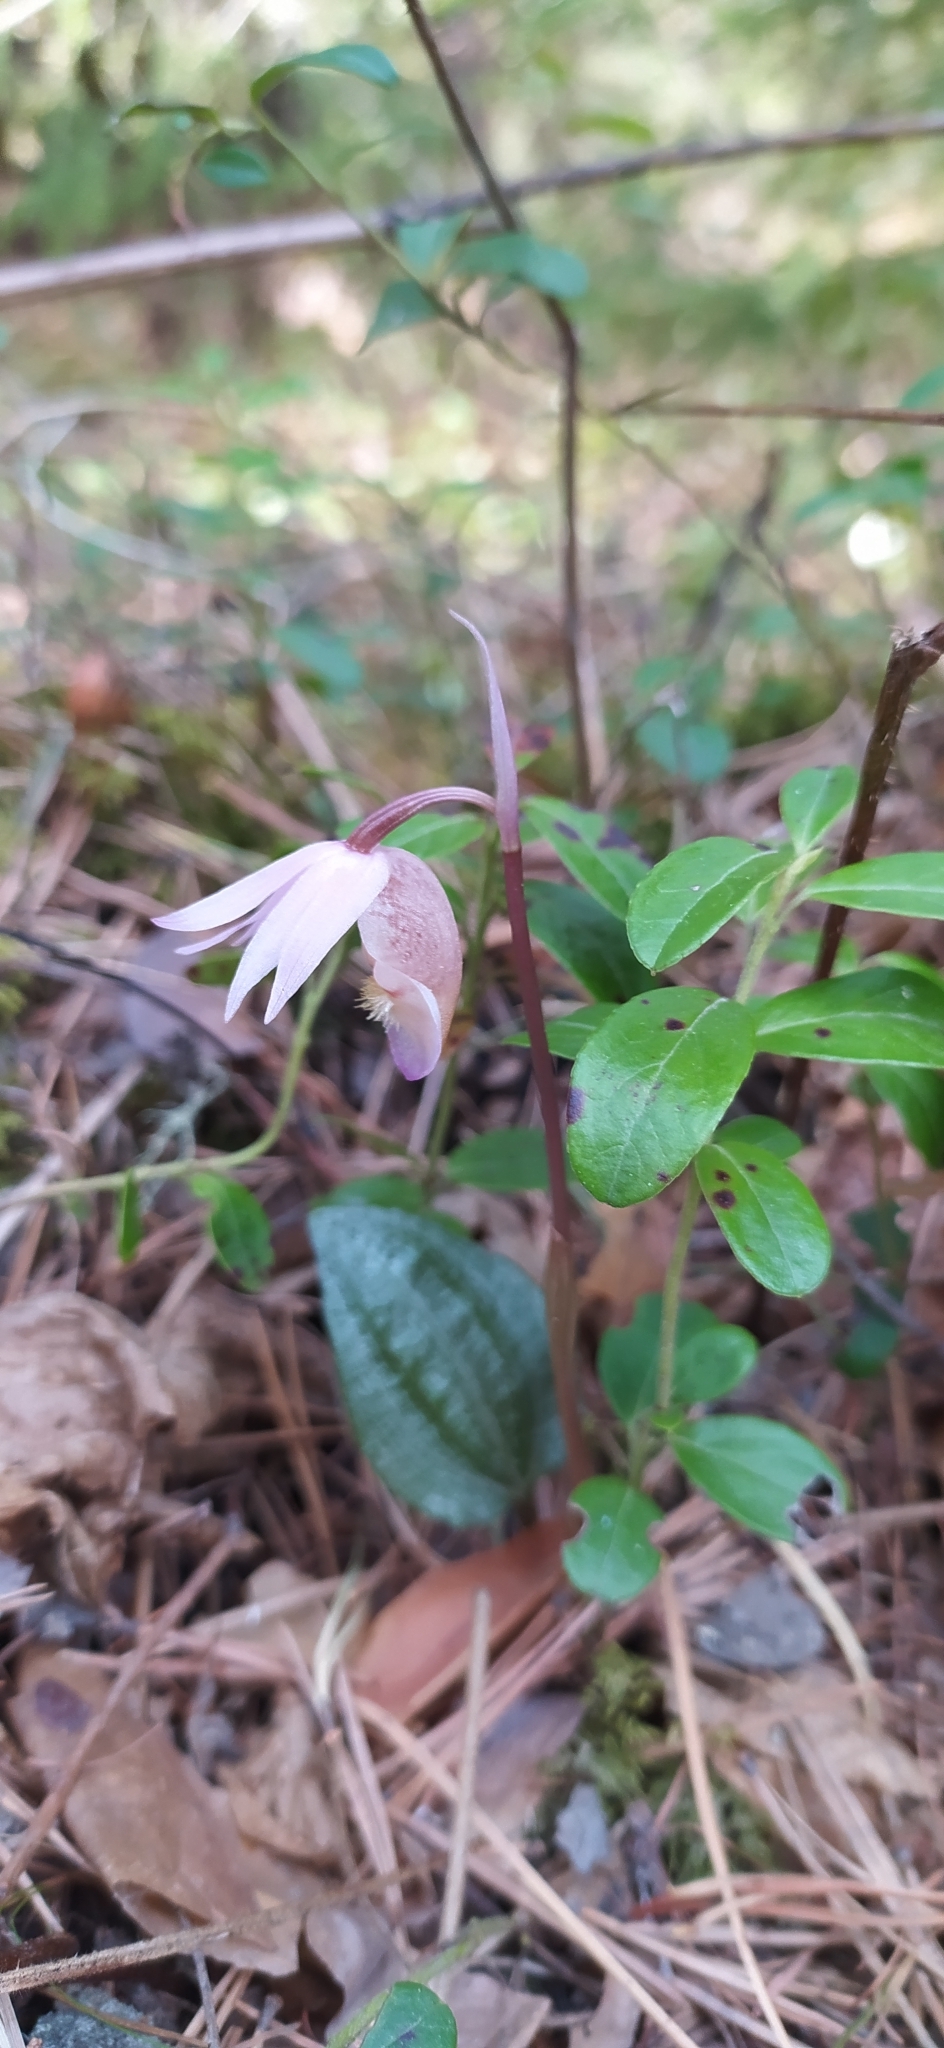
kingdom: Plantae
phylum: Tracheophyta
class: Liliopsida
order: Asparagales
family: Orchidaceae
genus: Calypso
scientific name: Calypso bulbosa
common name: Calypso
